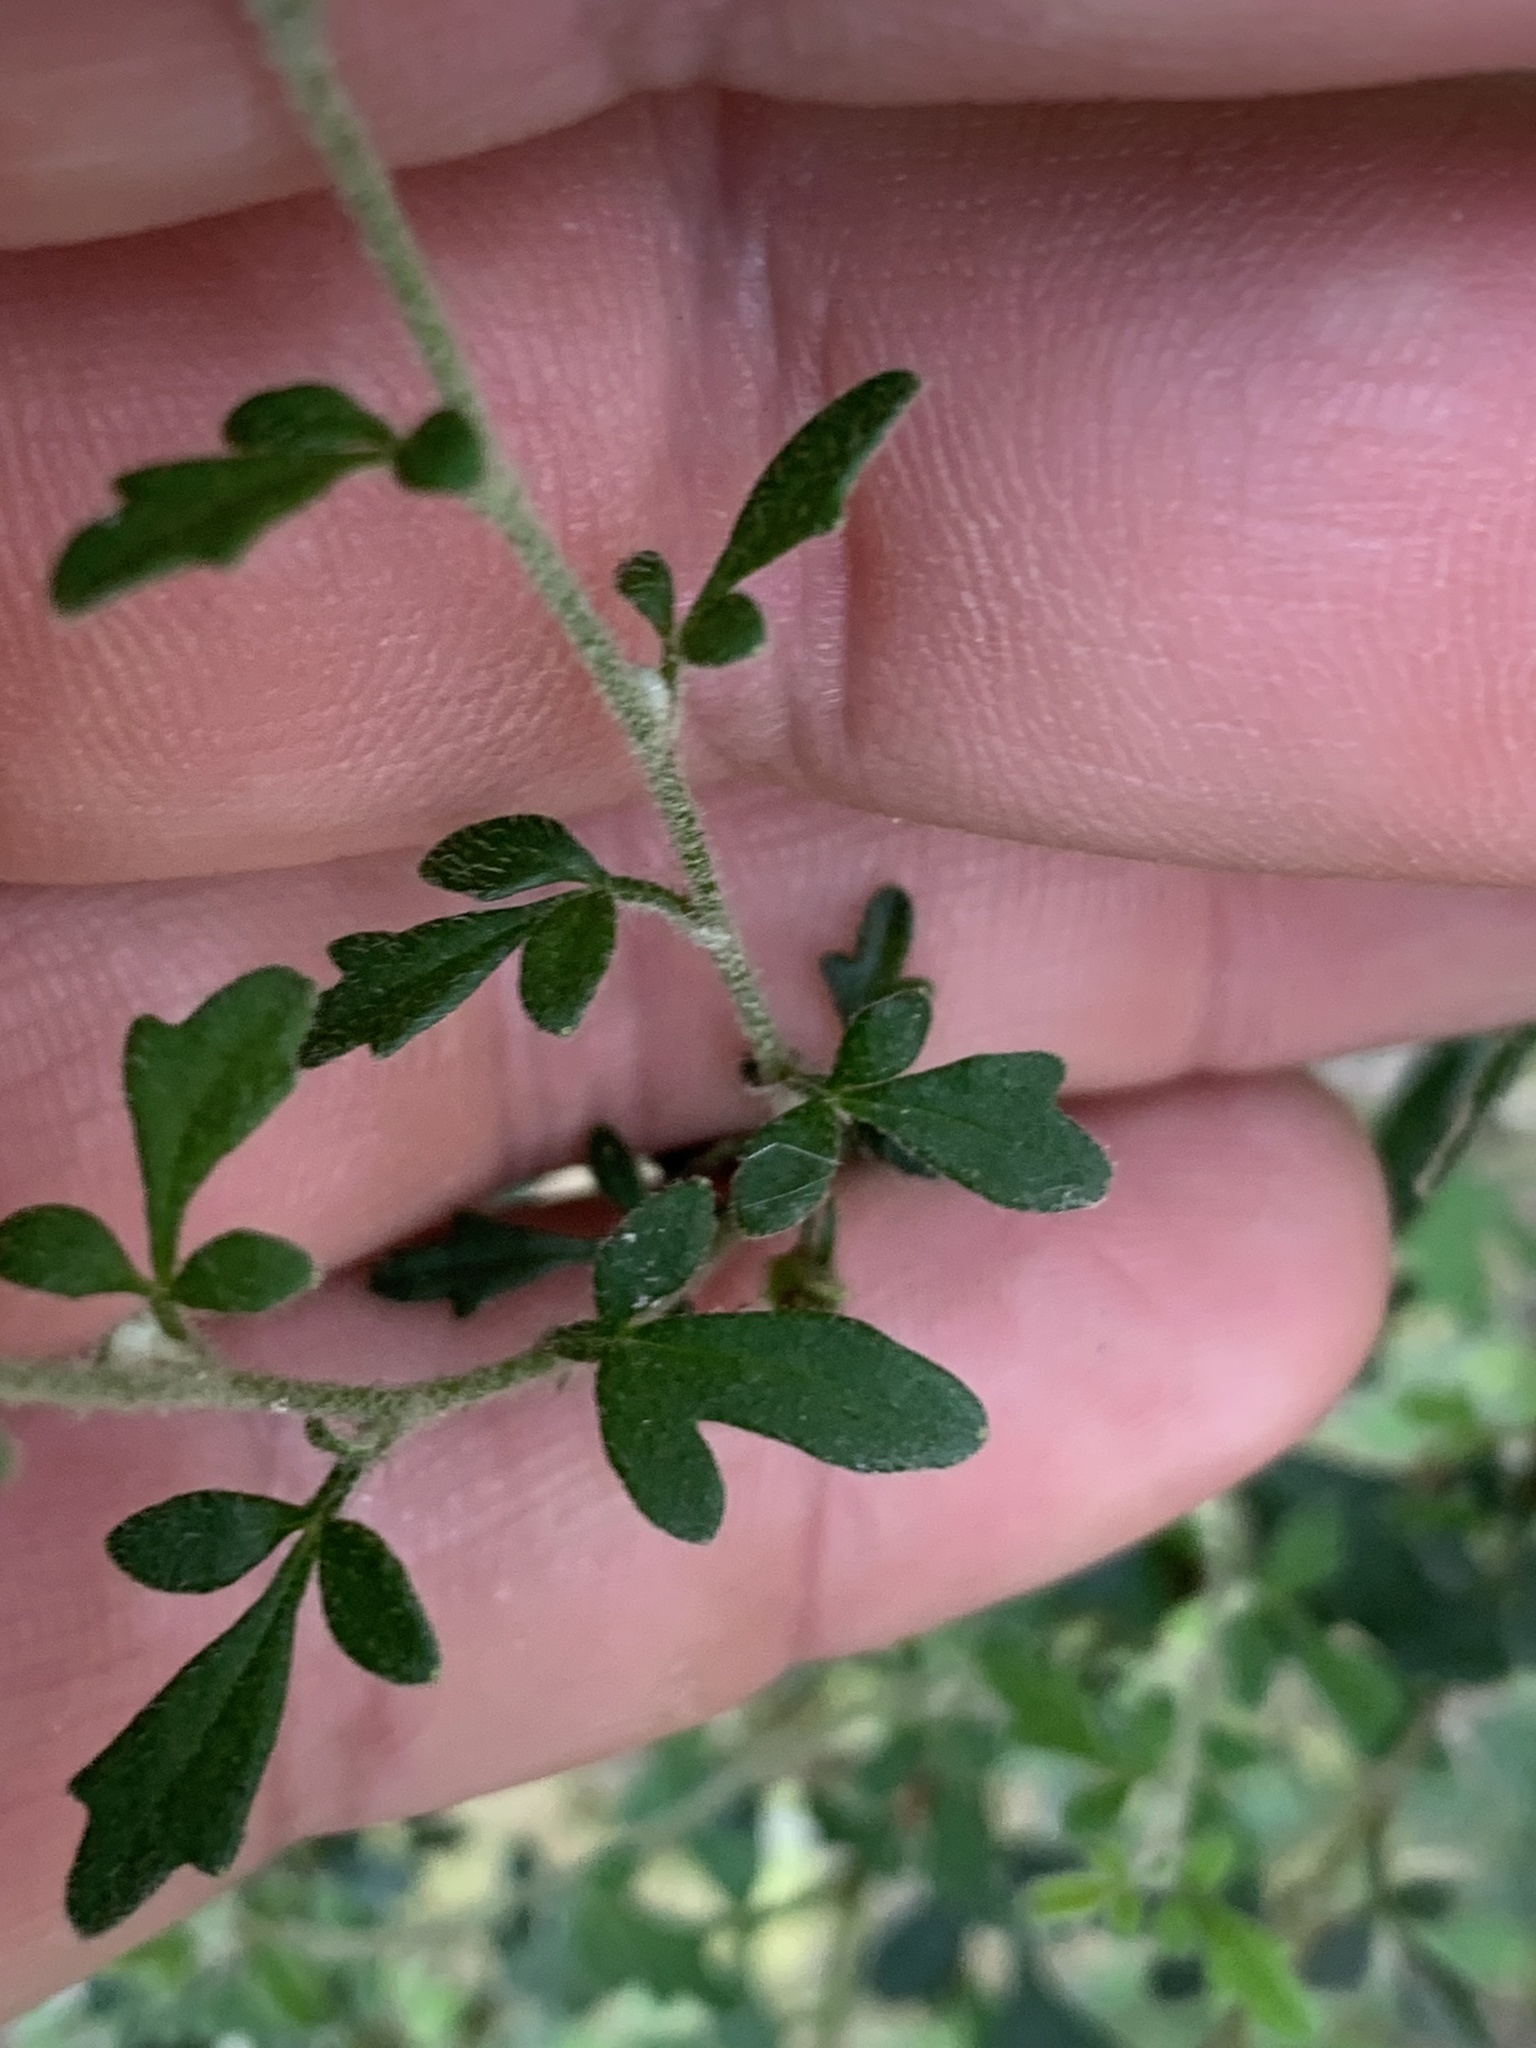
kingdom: Plantae
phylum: Tracheophyta
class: Magnoliopsida
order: Apiales
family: Apiaceae
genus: Xanthosia
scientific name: Xanthosia stellata
